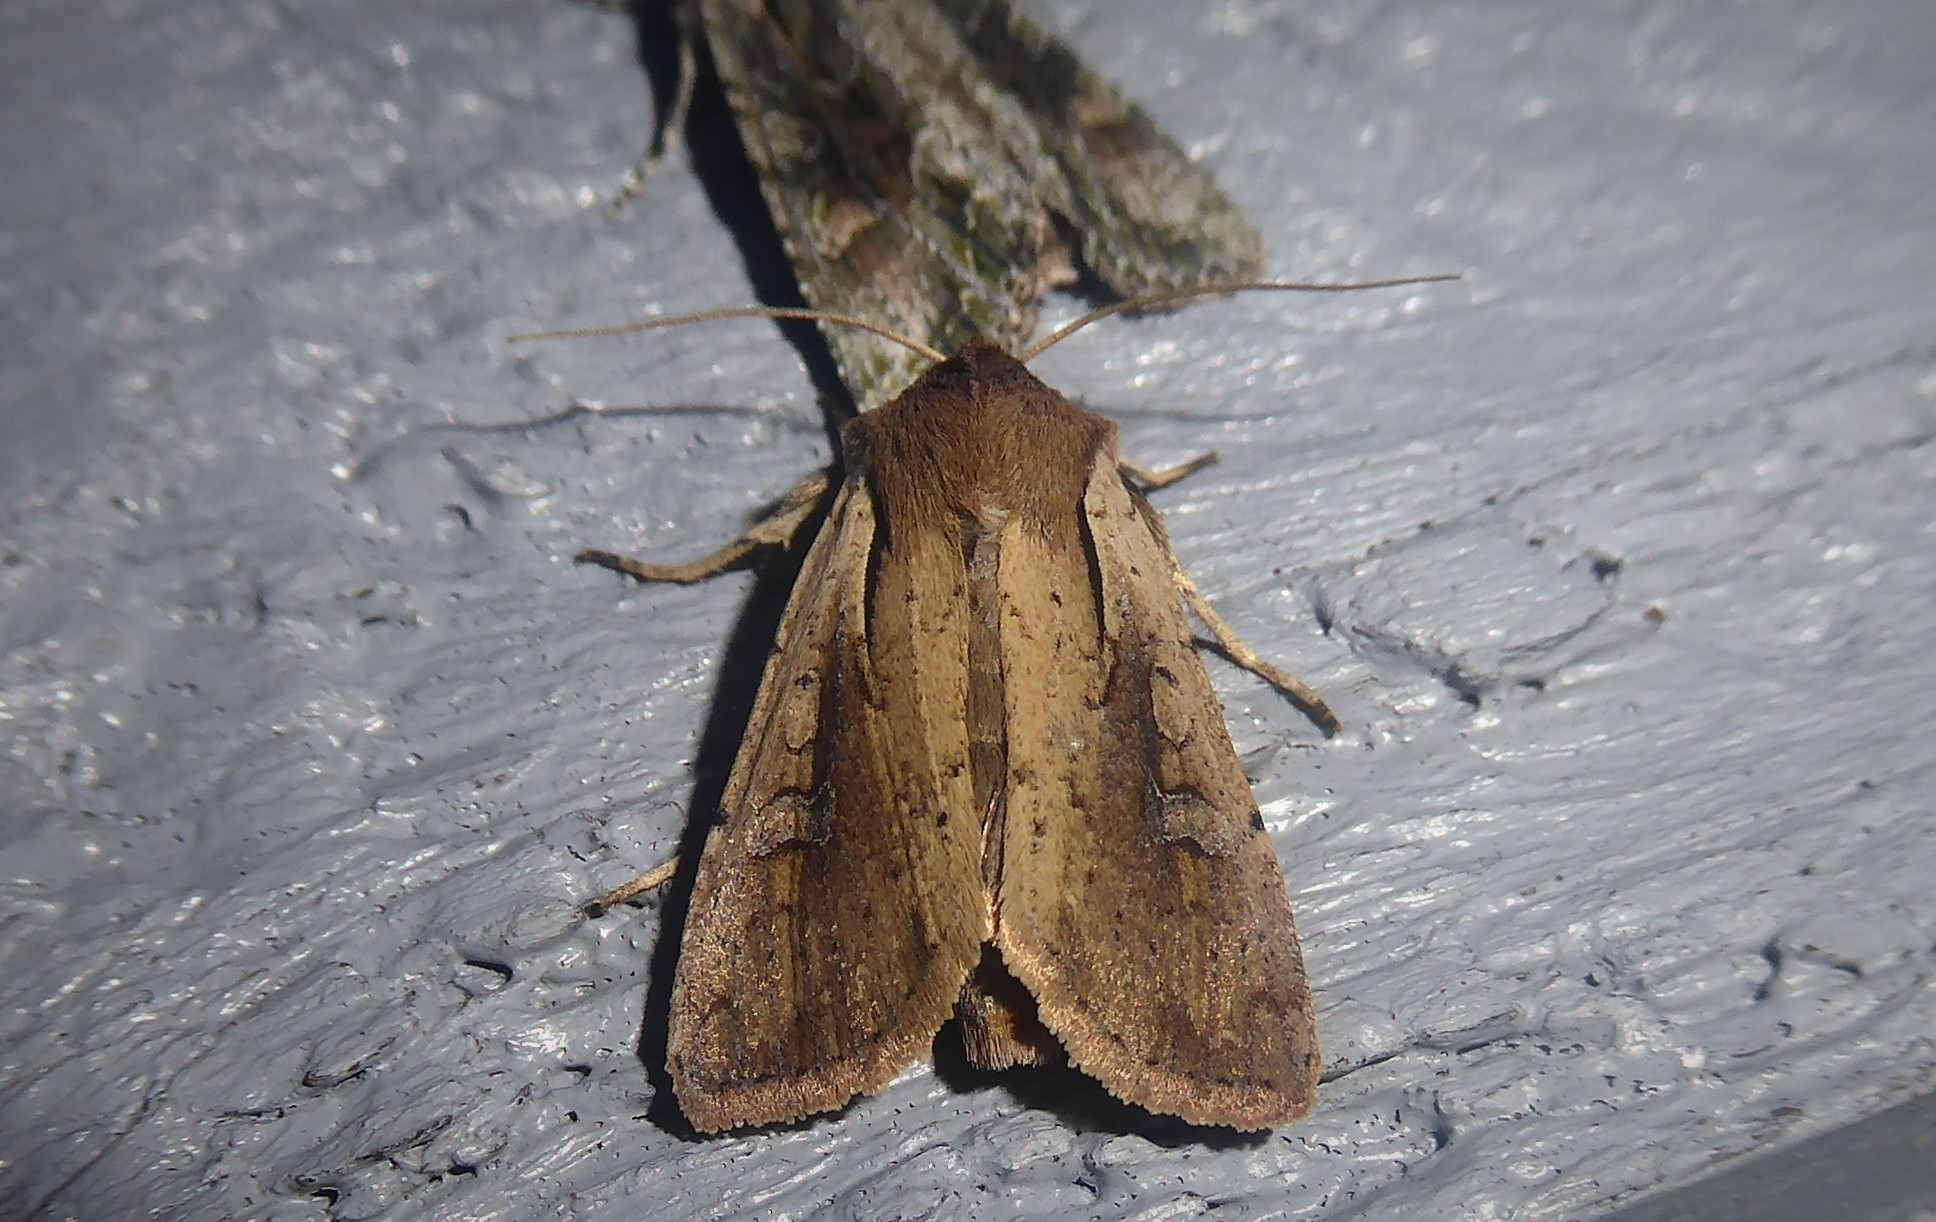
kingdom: Animalia
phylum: Arthropoda
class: Insecta
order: Lepidoptera
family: Noctuidae
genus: Ichneutica
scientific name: Ichneutica atristriga
